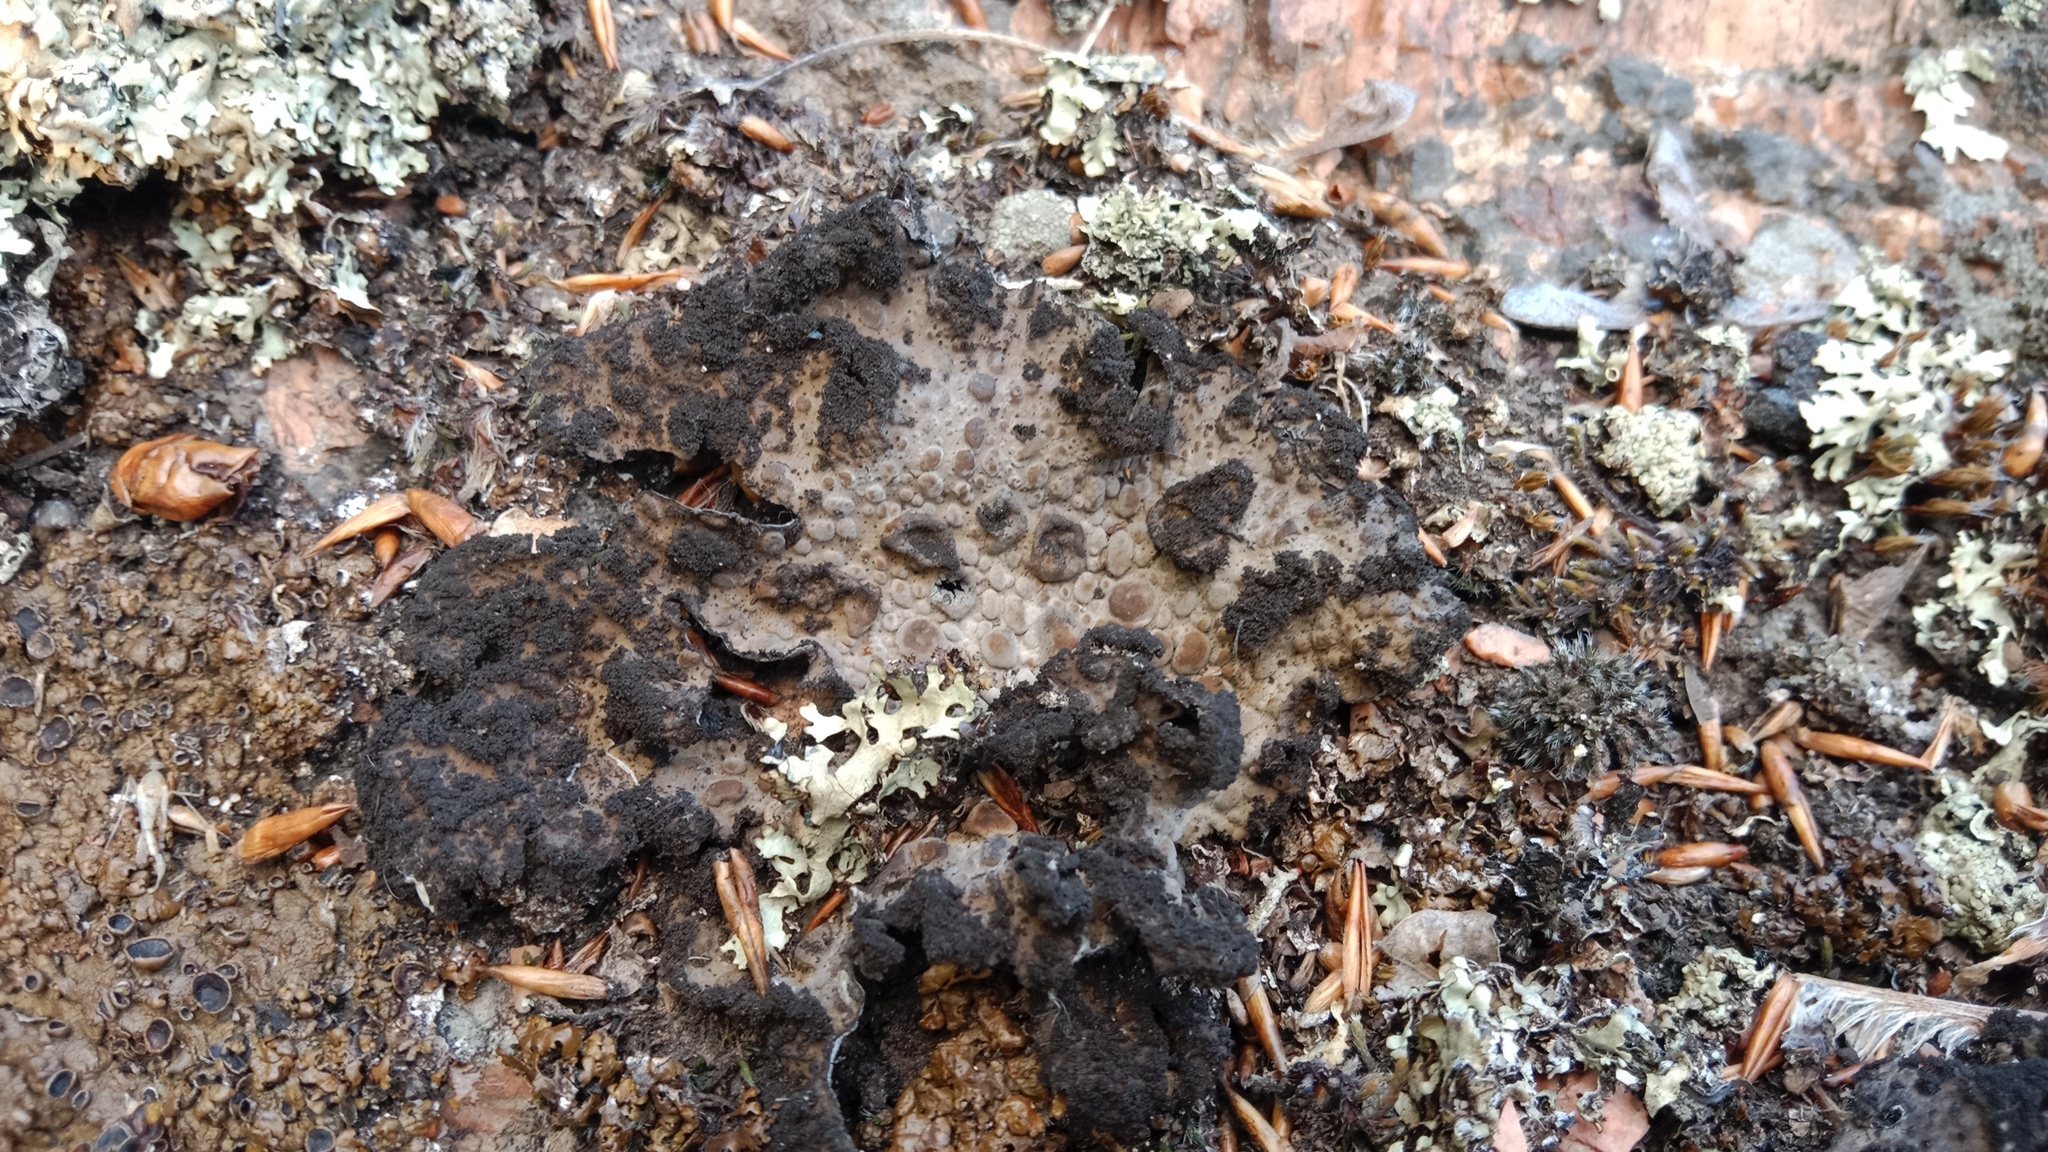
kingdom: Fungi
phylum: Ascomycota
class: Lecanoromycetes
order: Umbilicariales
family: Umbilicariaceae
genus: Lasallia
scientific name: Lasallia pustulata
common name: Blistered toadskin lichen
